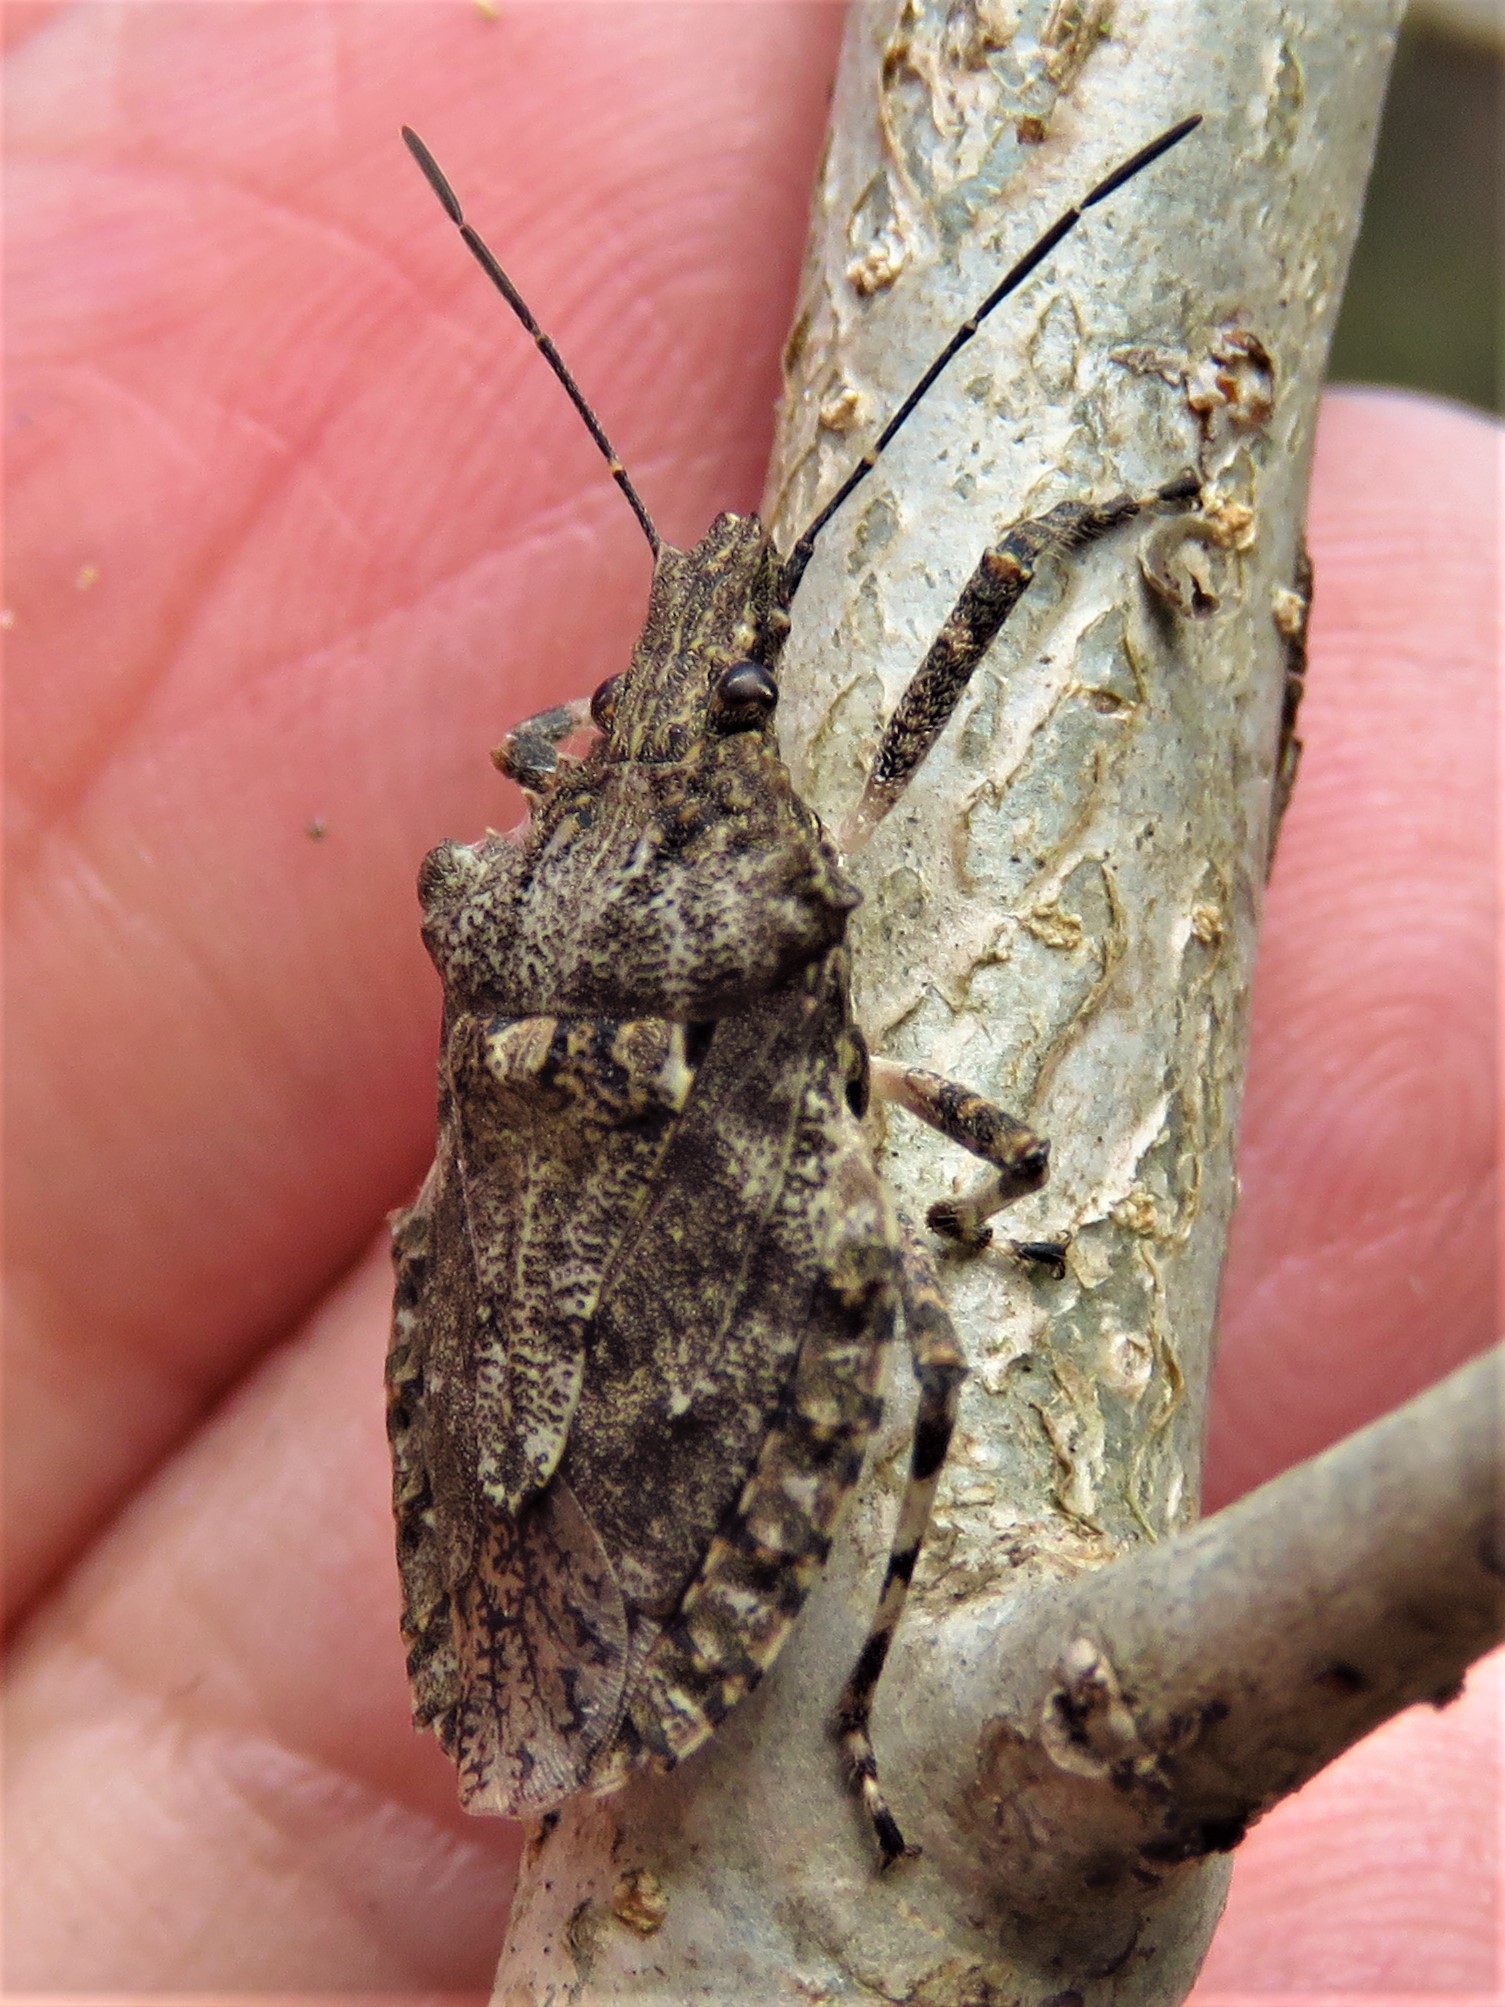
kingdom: Animalia
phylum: Arthropoda
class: Insecta
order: Hemiptera
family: Pentatomidae
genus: Brochymena
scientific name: Brochymena arborea
